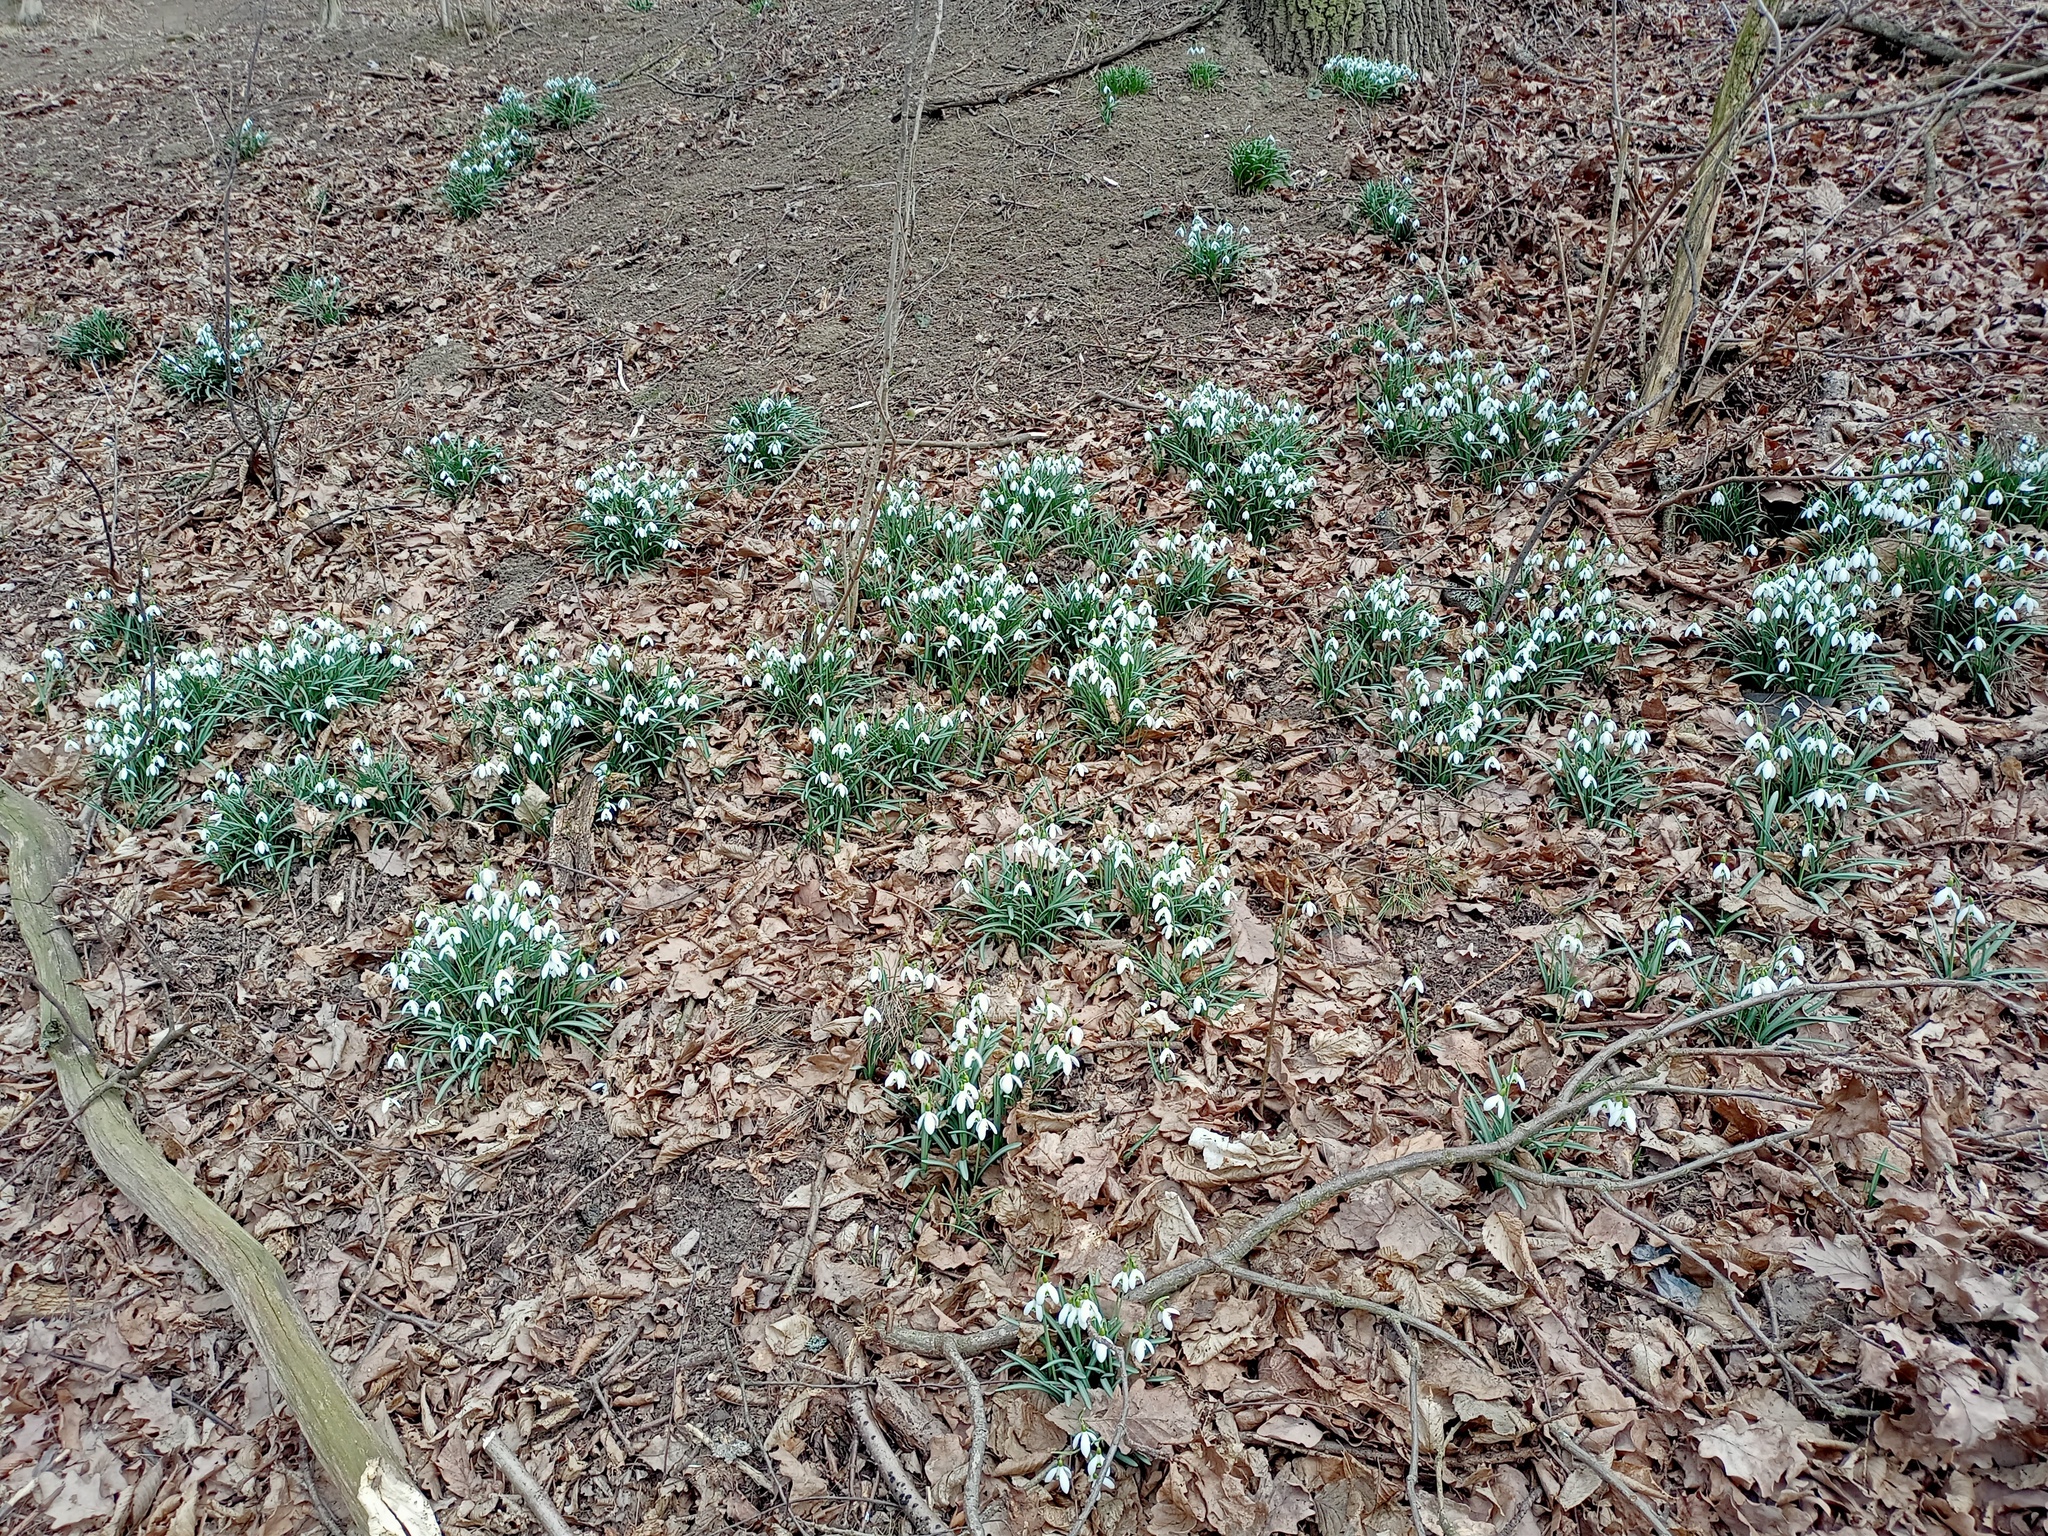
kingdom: Plantae
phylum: Tracheophyta
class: Liliopsida
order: Asparagales
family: Amaryllidaceae
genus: Galanthus
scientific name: Galanthus nivalis
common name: Snowdrop
